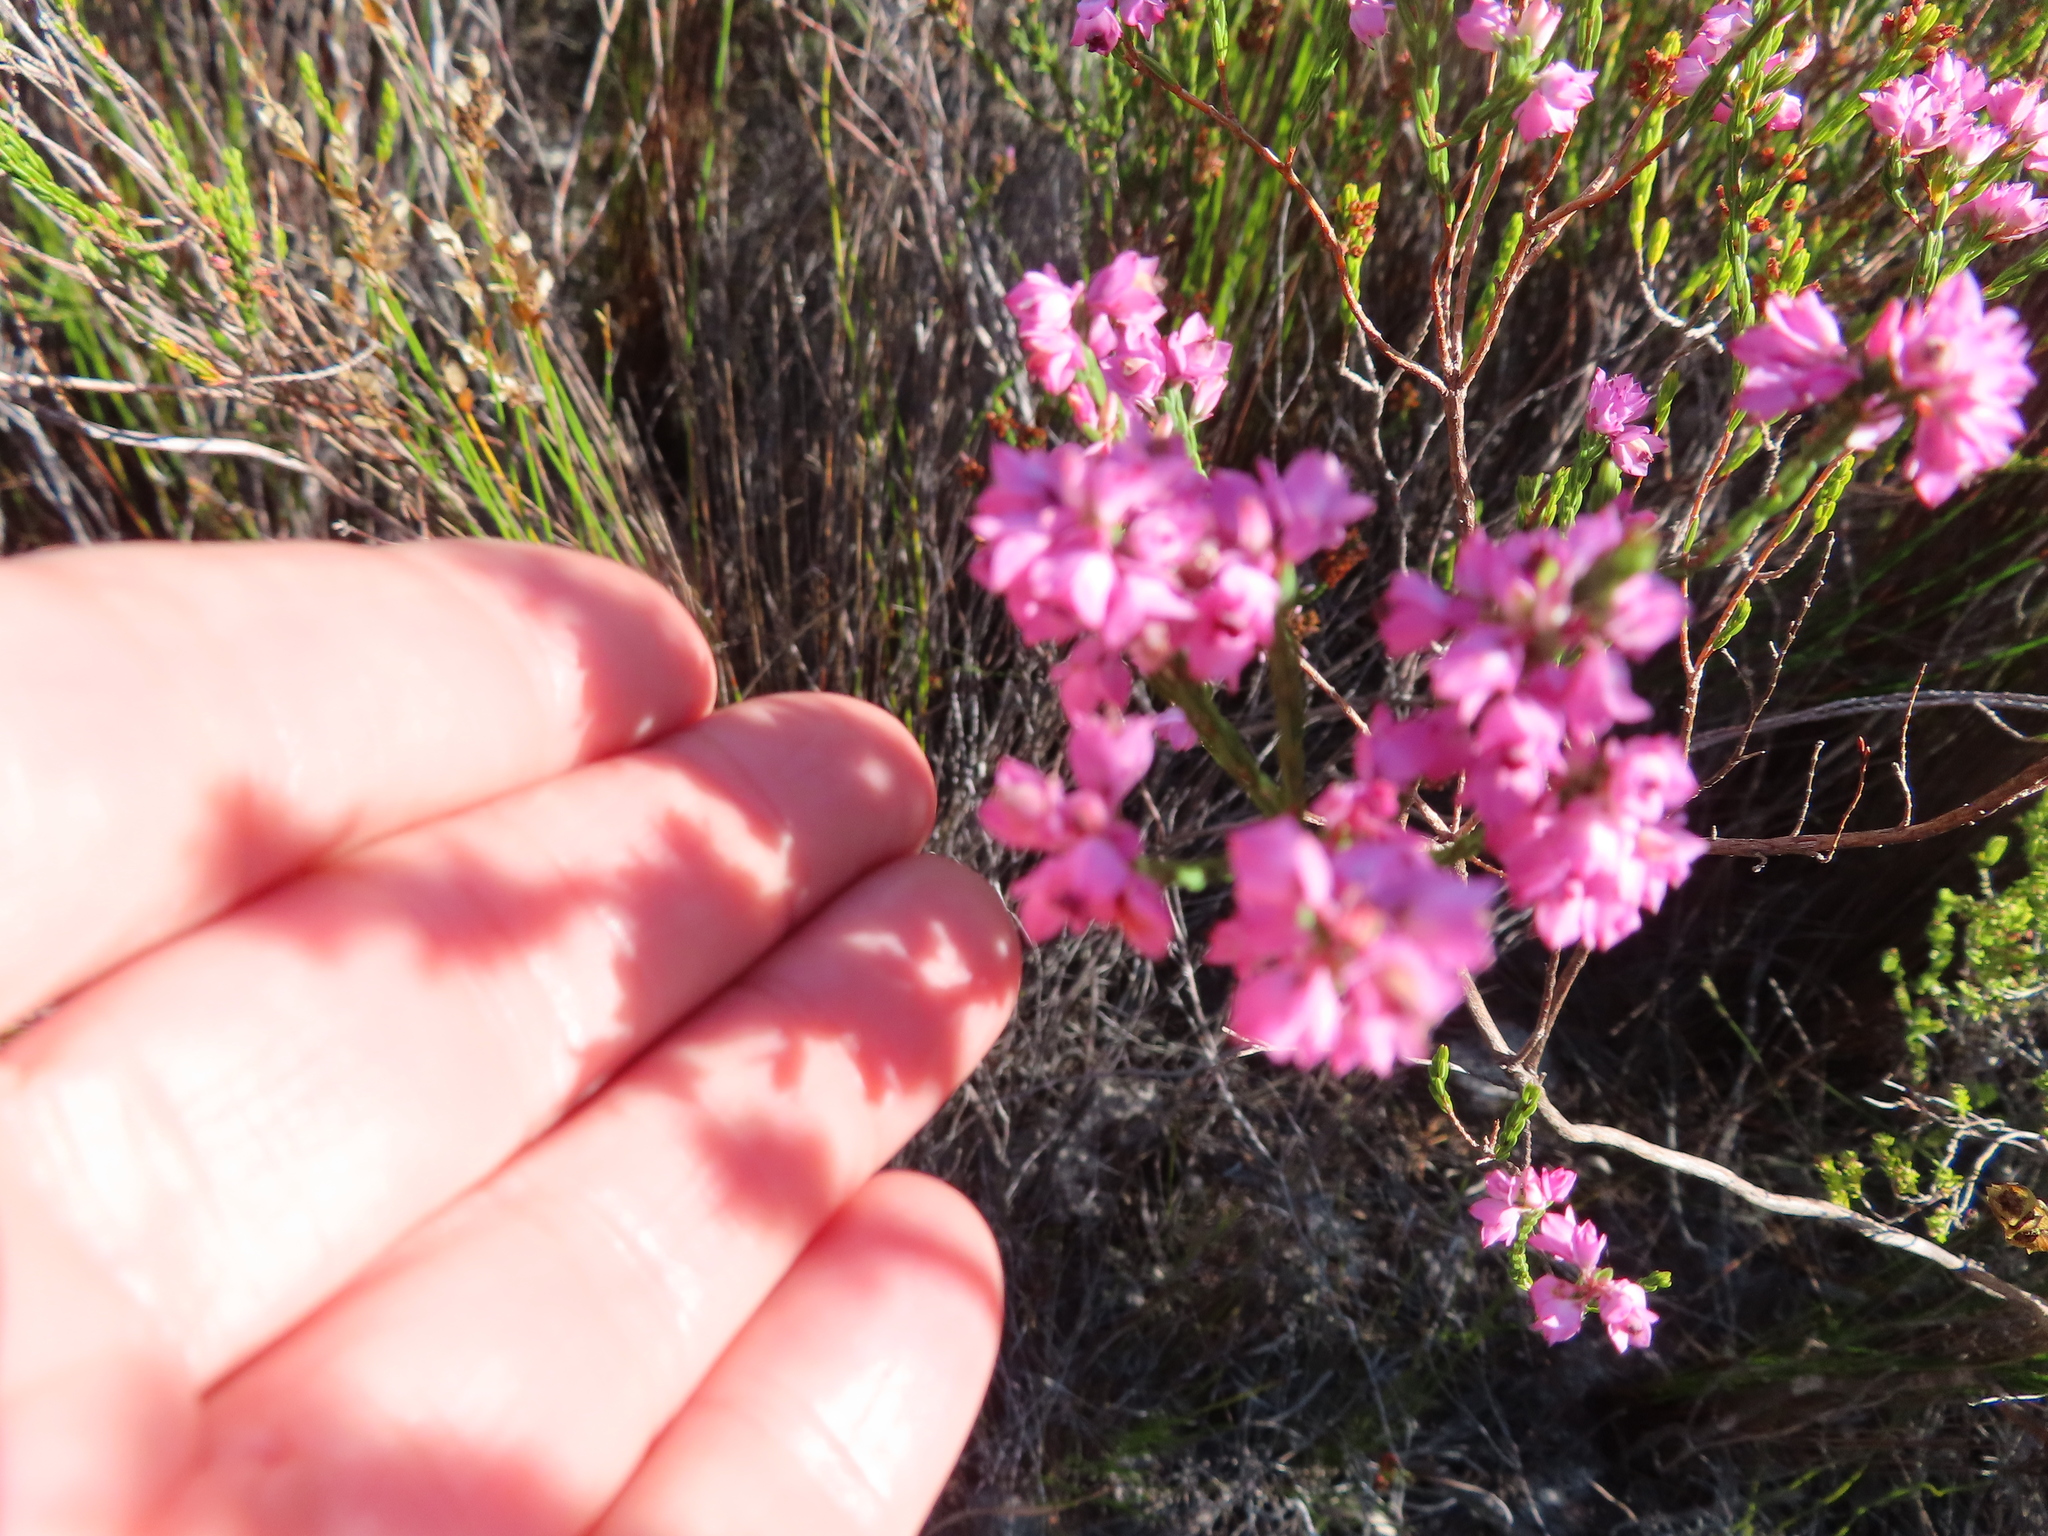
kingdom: Plantae
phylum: Tracheophyta
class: Magnoliopsida
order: Ericales
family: Ericaceae
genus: Erica
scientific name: Erica corifolia
